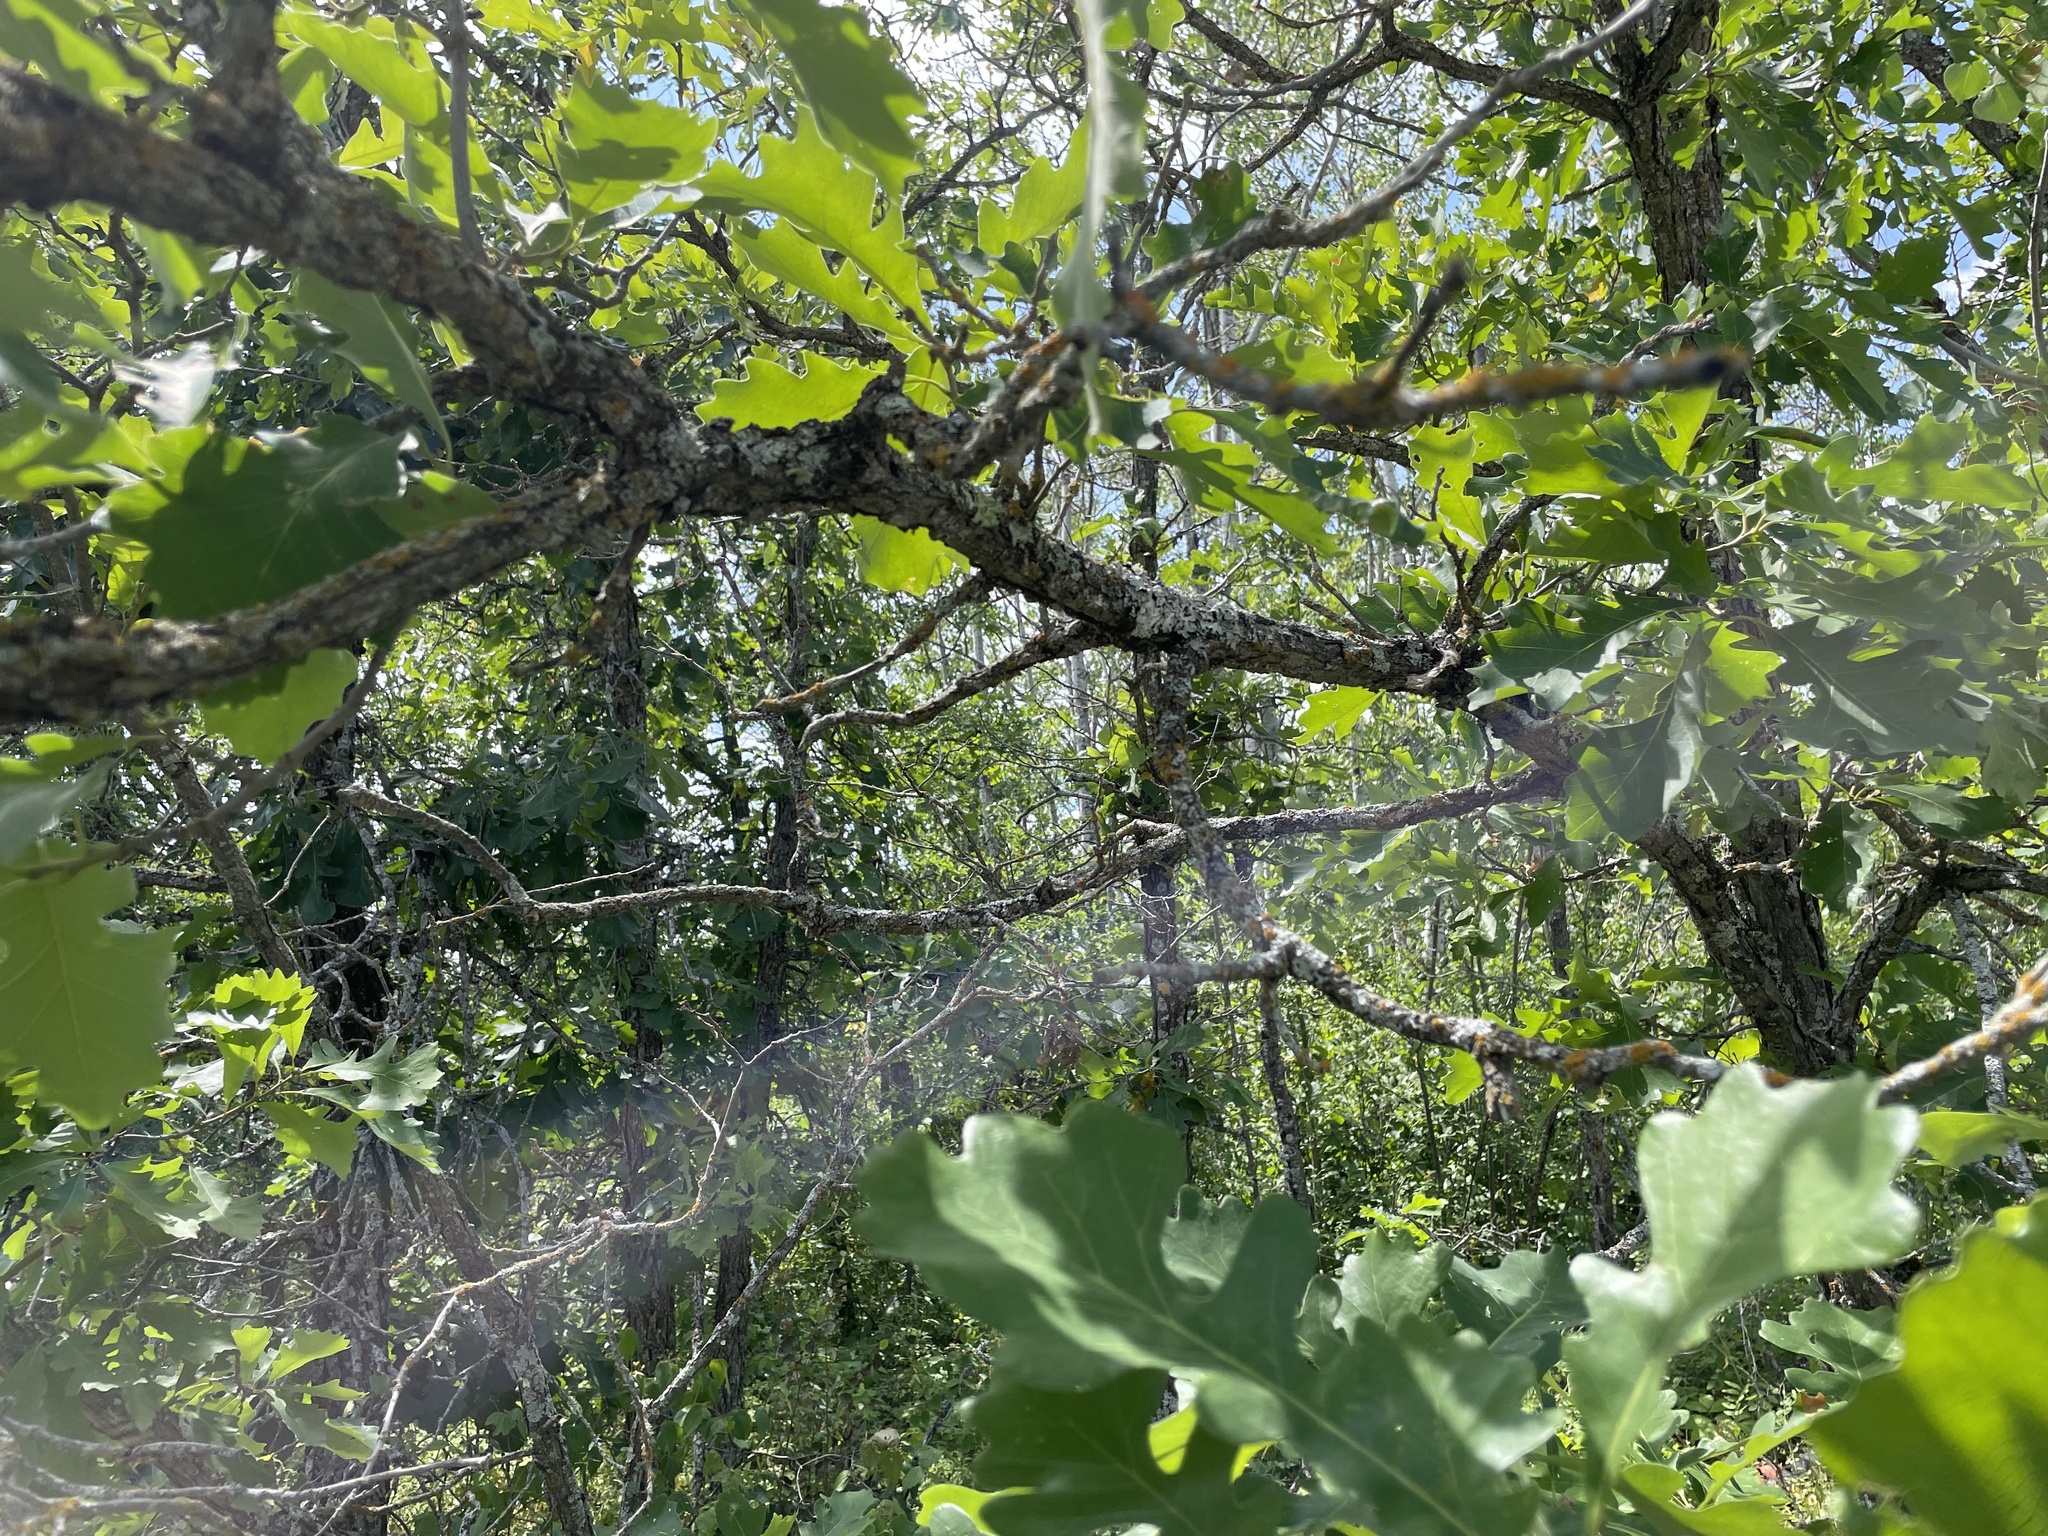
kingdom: Plantae
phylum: Tracheophyta
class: Magnoliopsida
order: Fagales
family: Fagaceae
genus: Quercus
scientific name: Quercus macrocarpa
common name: Bur oak
